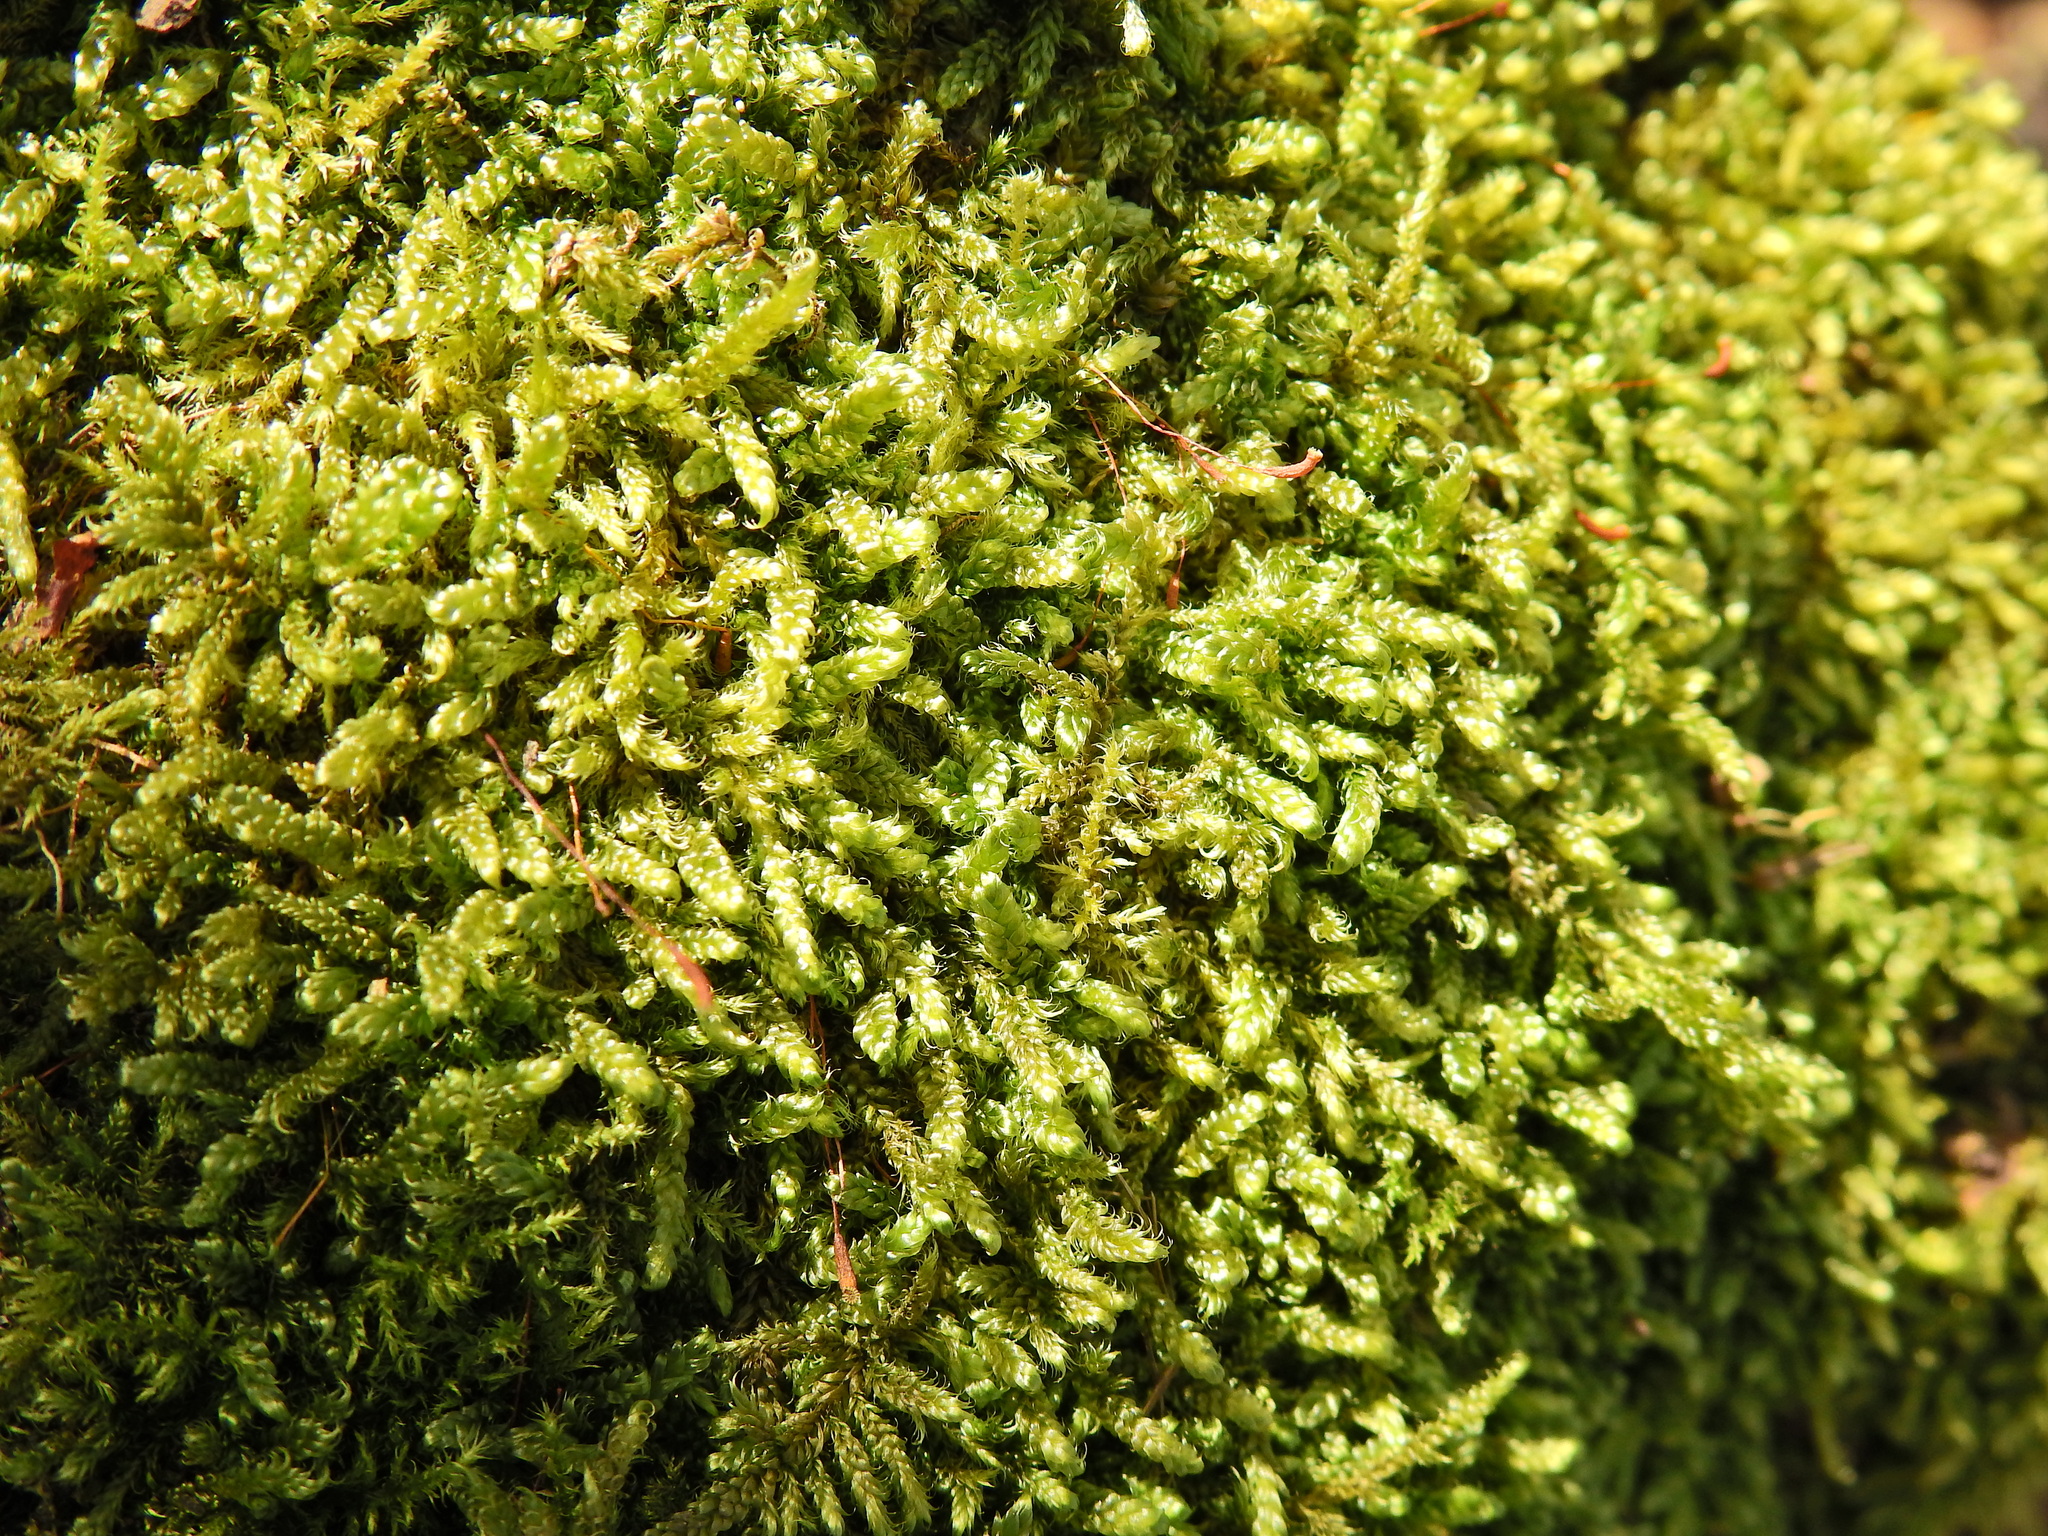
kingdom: Plantae
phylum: Bryophyta
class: Bryopsida
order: Hypnales
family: Hypnaceae
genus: Hypnum
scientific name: Hypnum cupressiforme
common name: Cypress-leaved plait-moss
